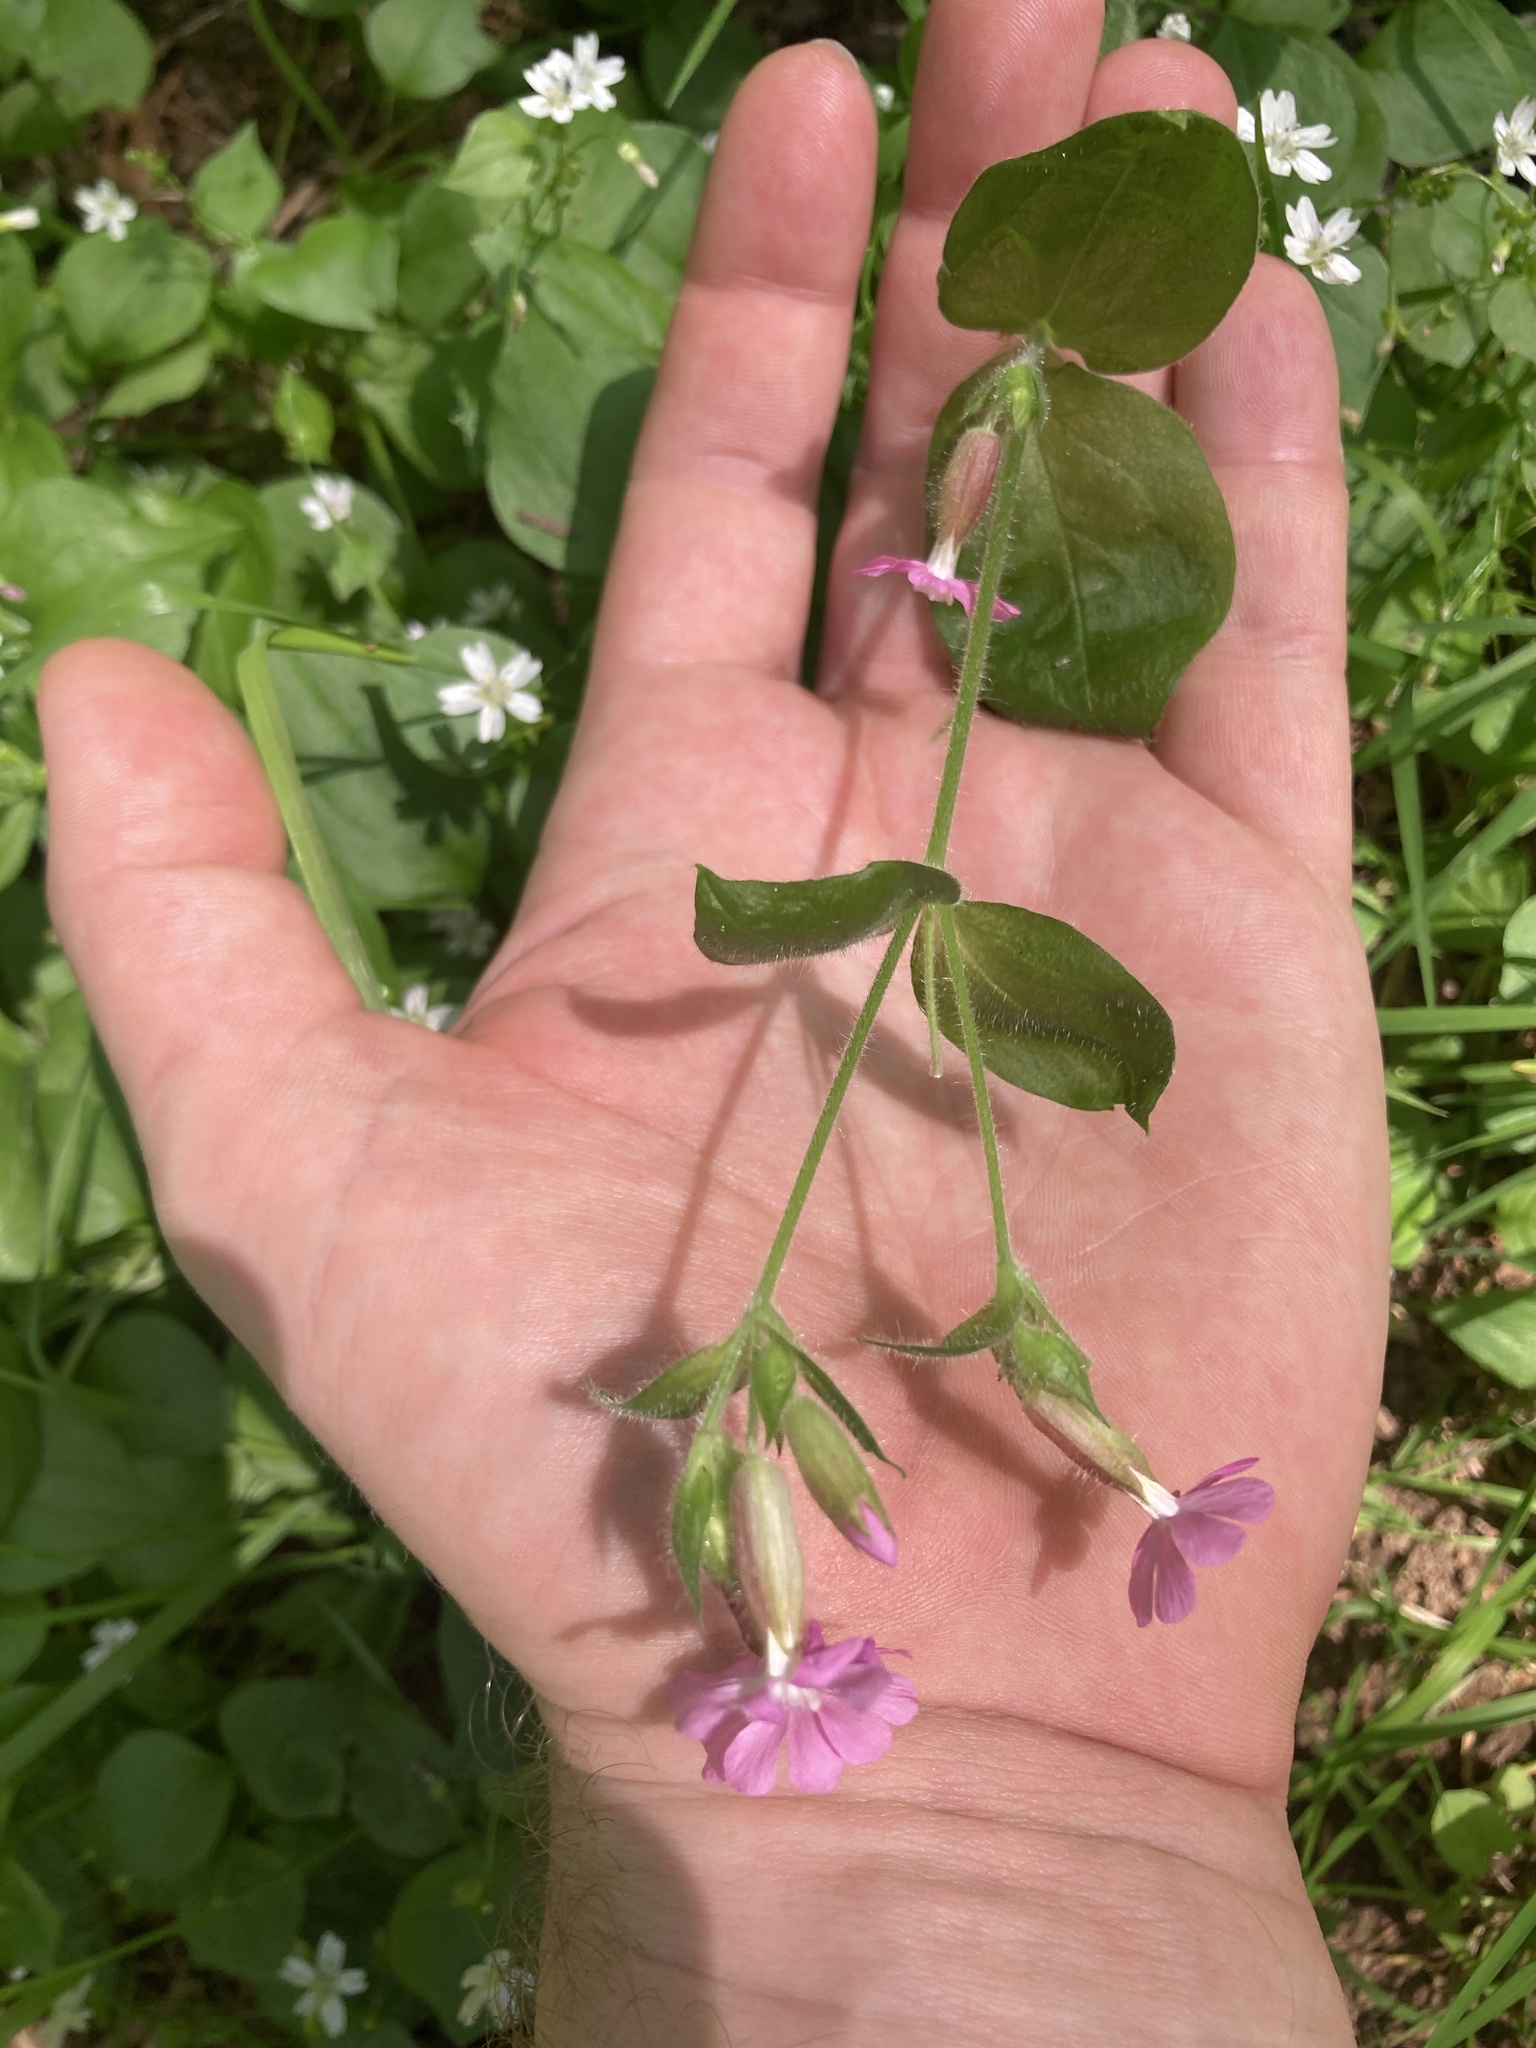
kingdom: Plantae
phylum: Tracheophyta
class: Magnoliopsida
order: Caryophyllales
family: Caryophyllaceae
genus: Silene
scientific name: Silene dioica
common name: Red campion
